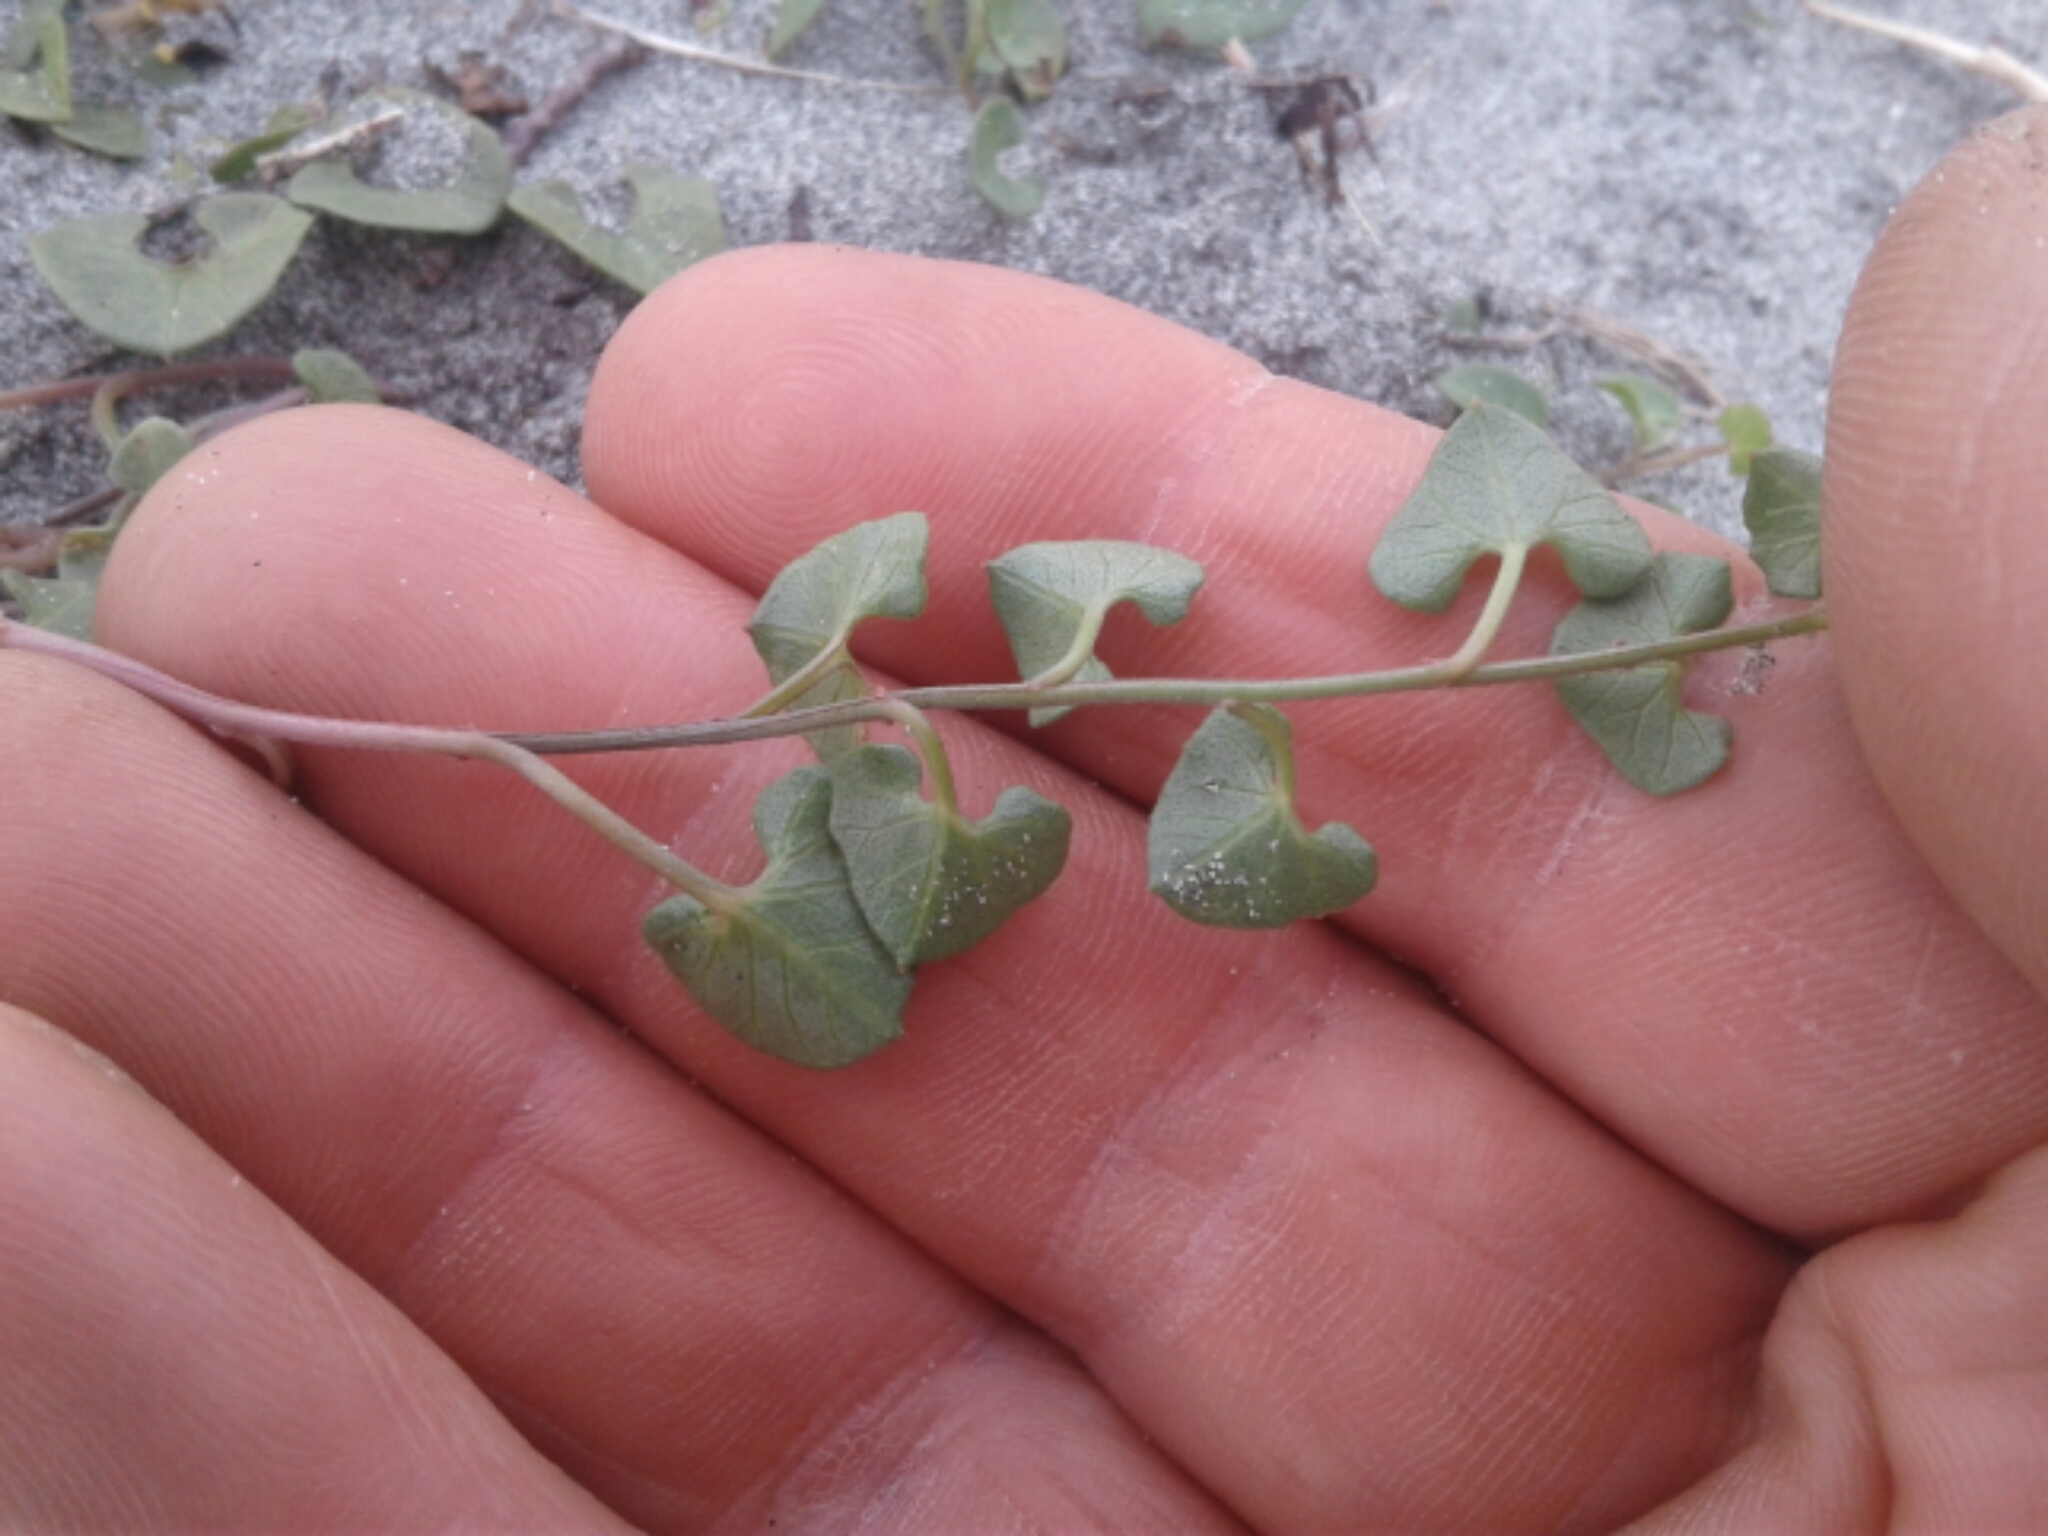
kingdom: Plantae
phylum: Tracheophyta
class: Magnoliopsida
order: Solanales
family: Convolvulaceae
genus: Calystegia
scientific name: Calystegia soldanella
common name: Sea bindweed
